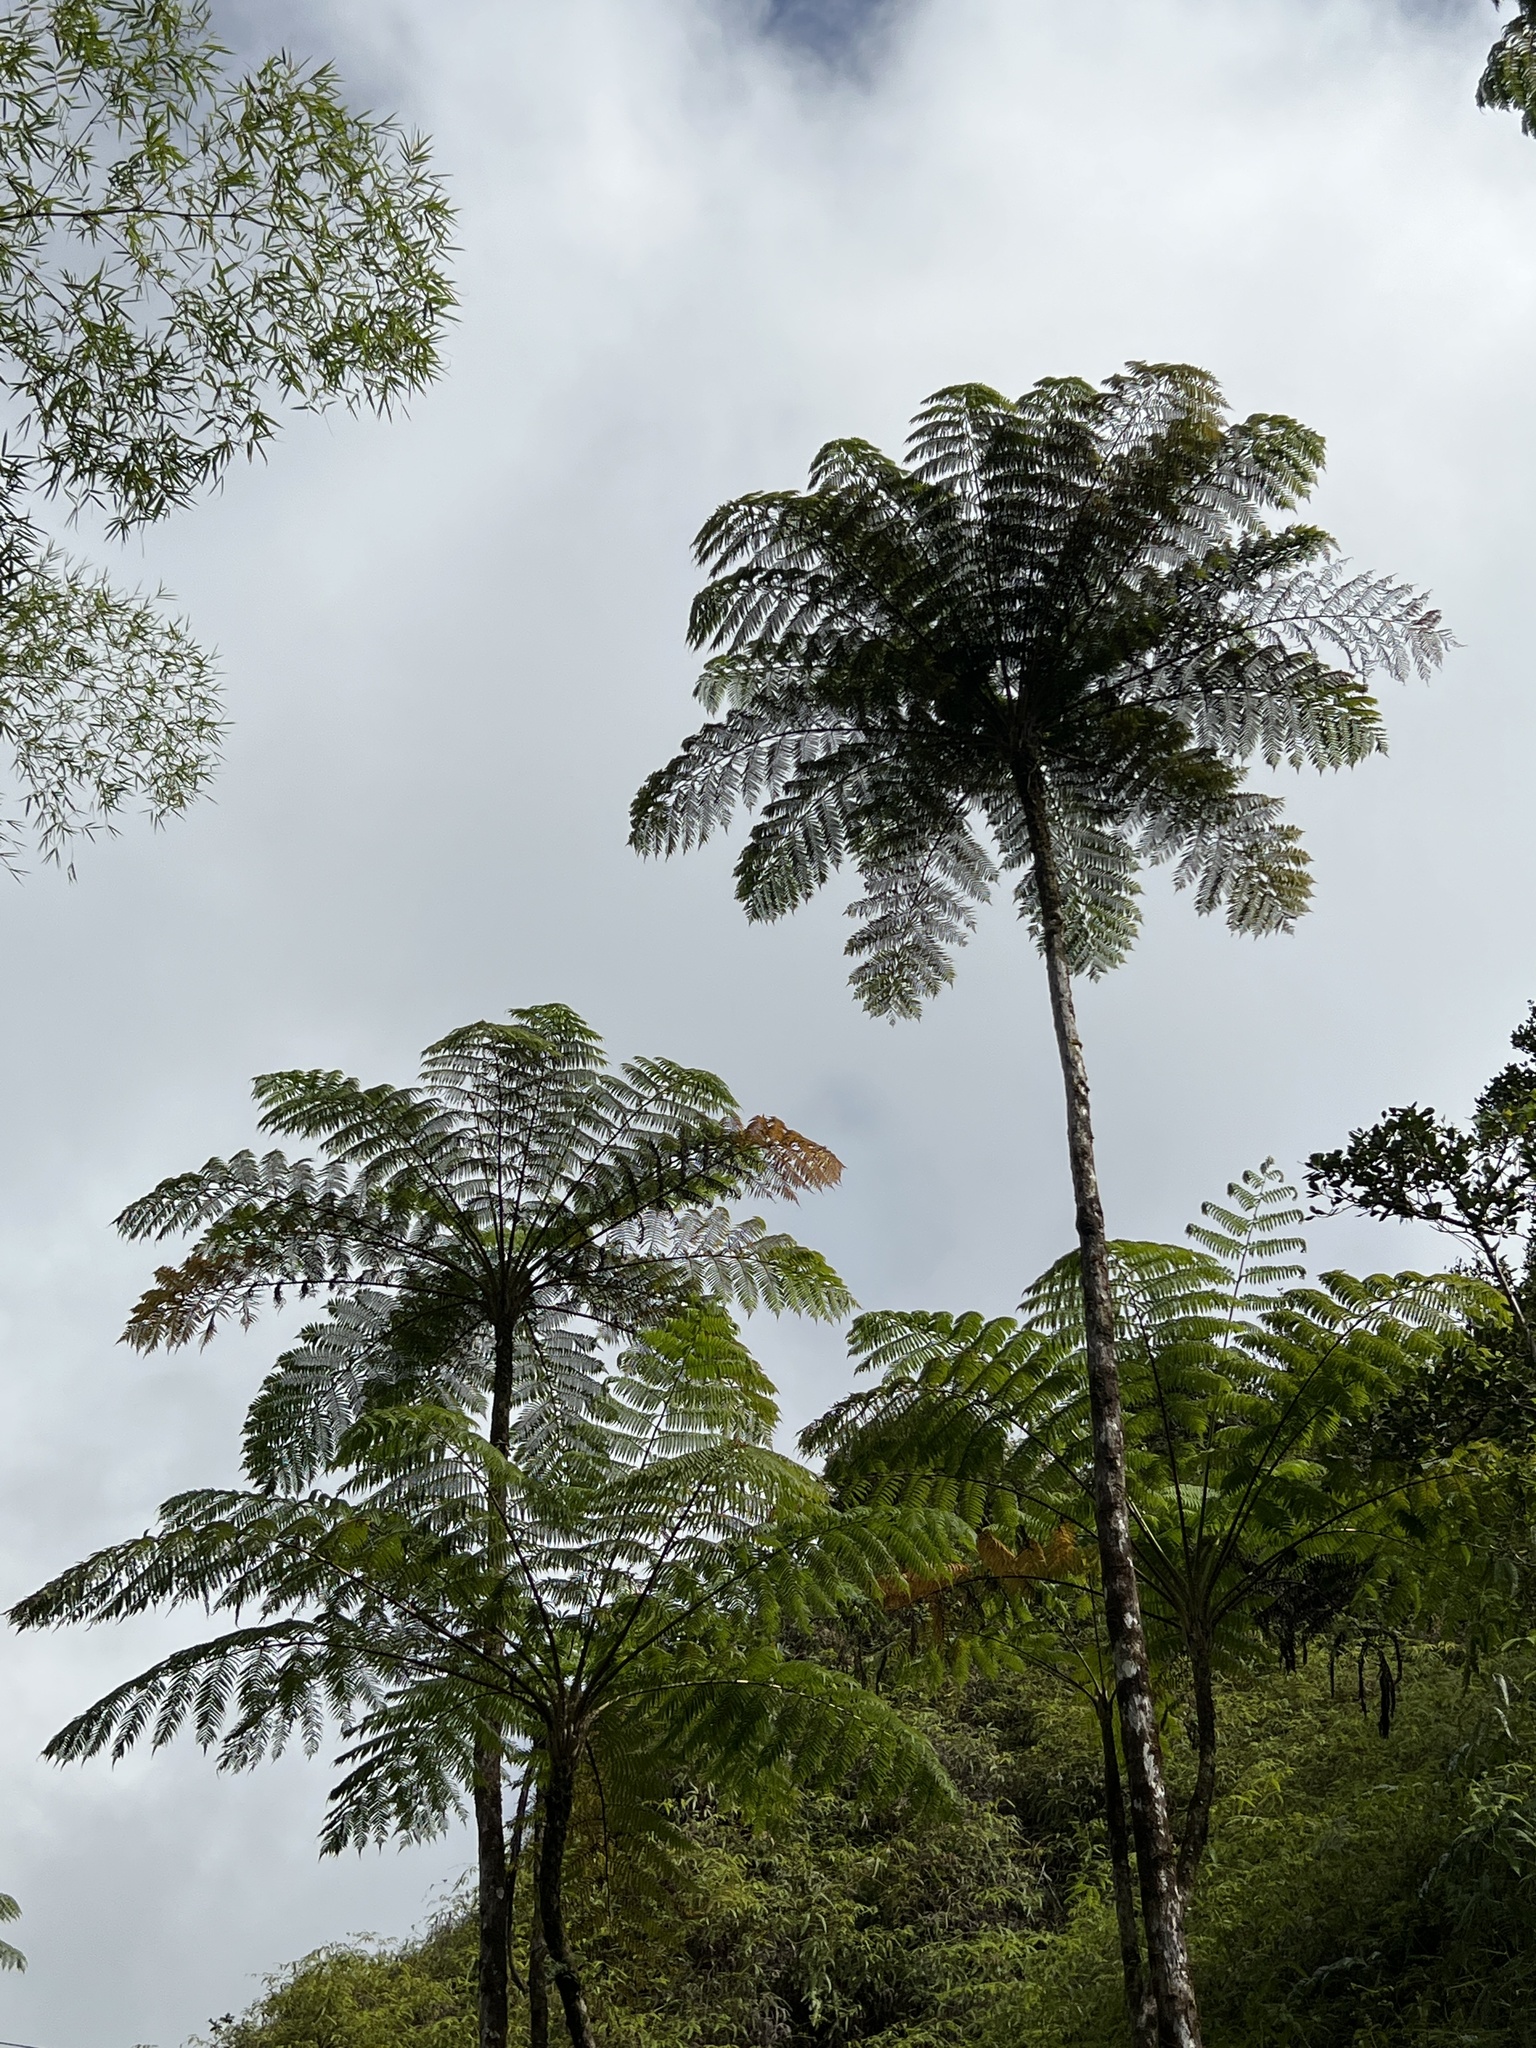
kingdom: Plantae
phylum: Tracheophyta
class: Polypodiopsida
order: Cyatheales
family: Cyatheaceae
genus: Cyathea
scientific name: Cyathea arborea
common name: West indian treefern
